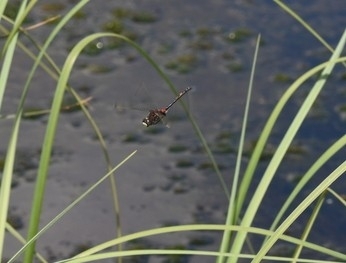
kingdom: Animalia
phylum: Arthropoda
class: Insecta
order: Odonata
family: Libellulidae
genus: Leucorrhinia
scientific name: Leucorrhinia dubia
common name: White-faced darter
